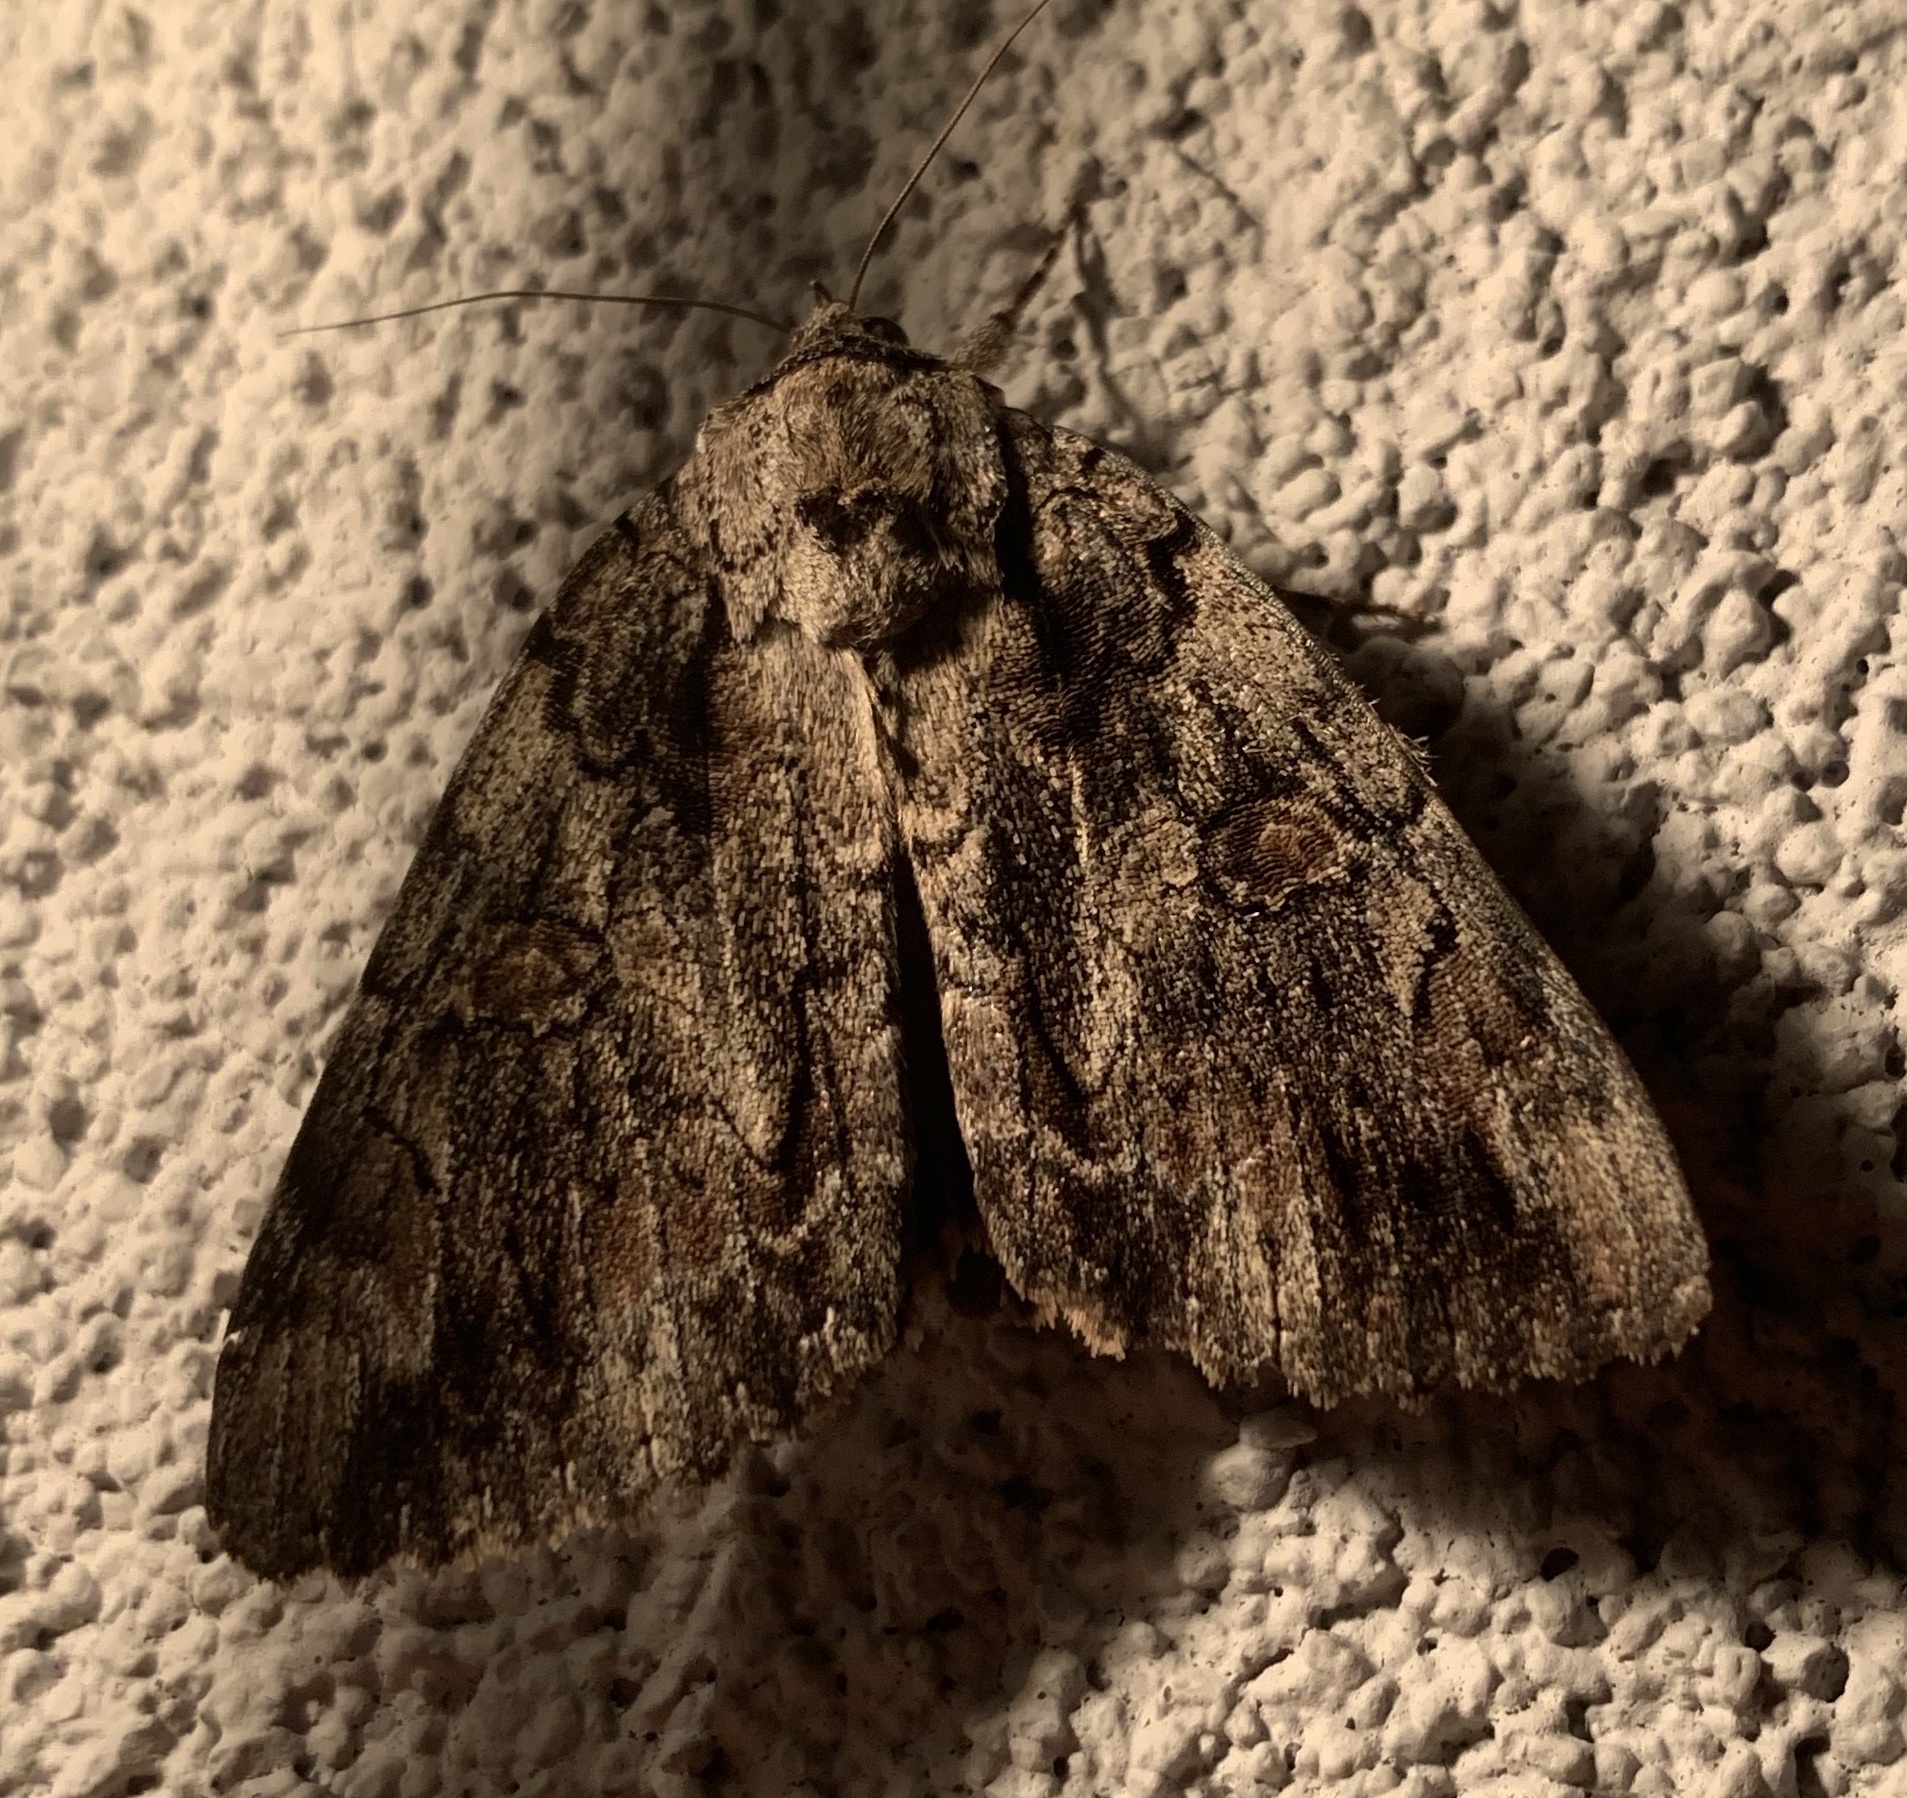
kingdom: Animalia
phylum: Arthropoda
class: Insecta
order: Lepidoptera
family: Erebidae
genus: Catocala
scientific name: Catocala neogama
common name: Bride underwing
